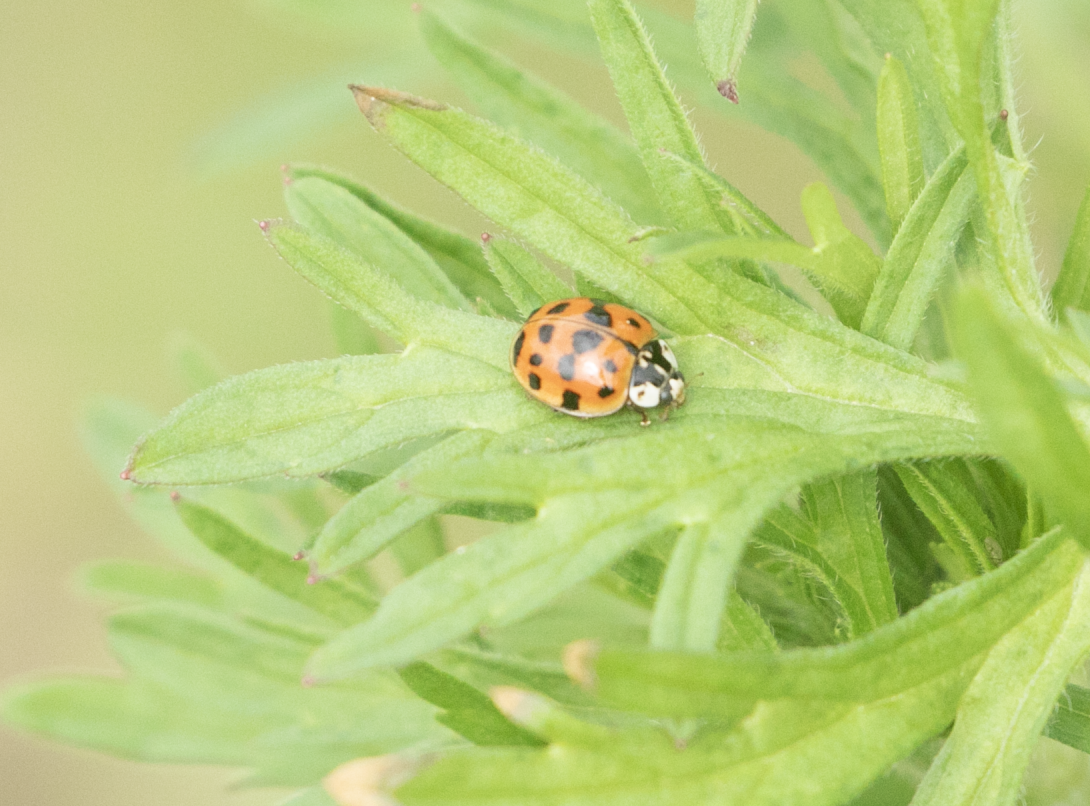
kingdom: Animalia
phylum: Arthropoda
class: Insecta
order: Coleoptera
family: Coccinellidae
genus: Harmonia
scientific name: Harmonia axyridis
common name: Harlequin ladybird
